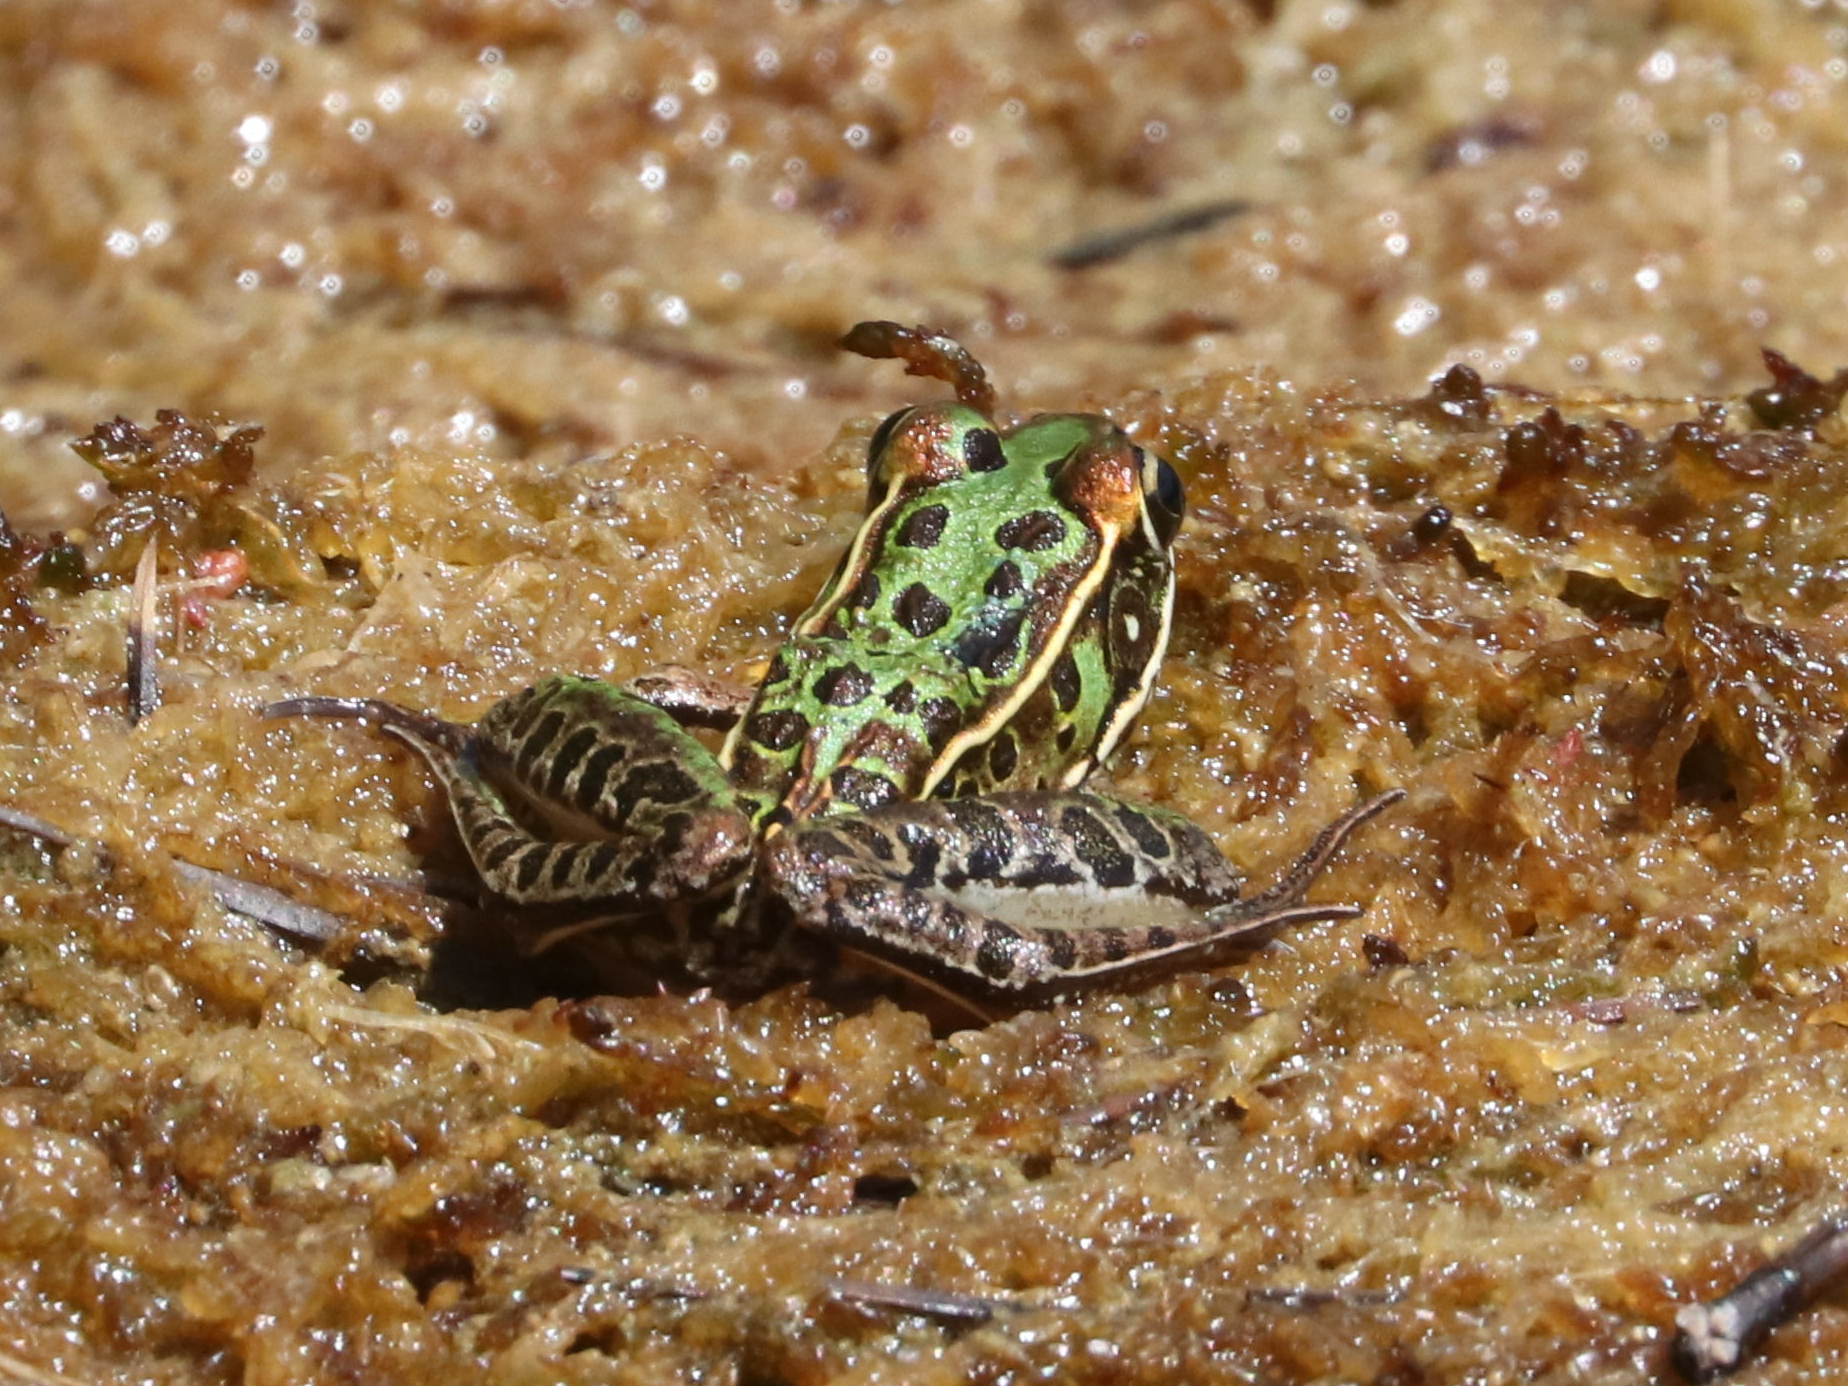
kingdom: Animalia
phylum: Chordata
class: Amphibia
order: Anura
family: Ranidae
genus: Lithobates
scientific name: Lithobates sphenocephalus
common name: Southern leopard frog
